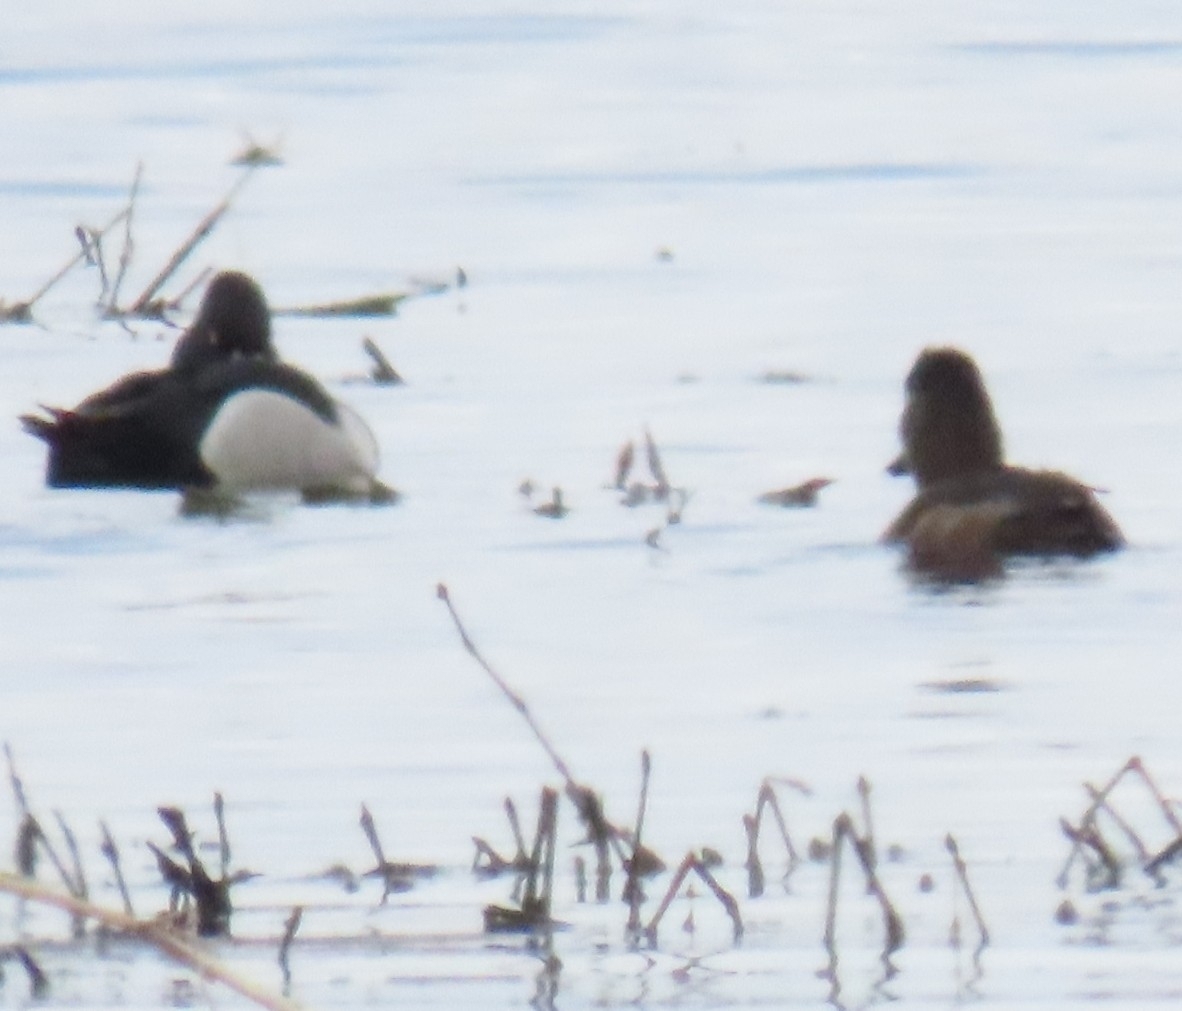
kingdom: Animalia
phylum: Chordata
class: Aves
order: Anseriformes
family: Anatidae
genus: Aythya
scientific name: Aythya collaris
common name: Ring-necked duck
